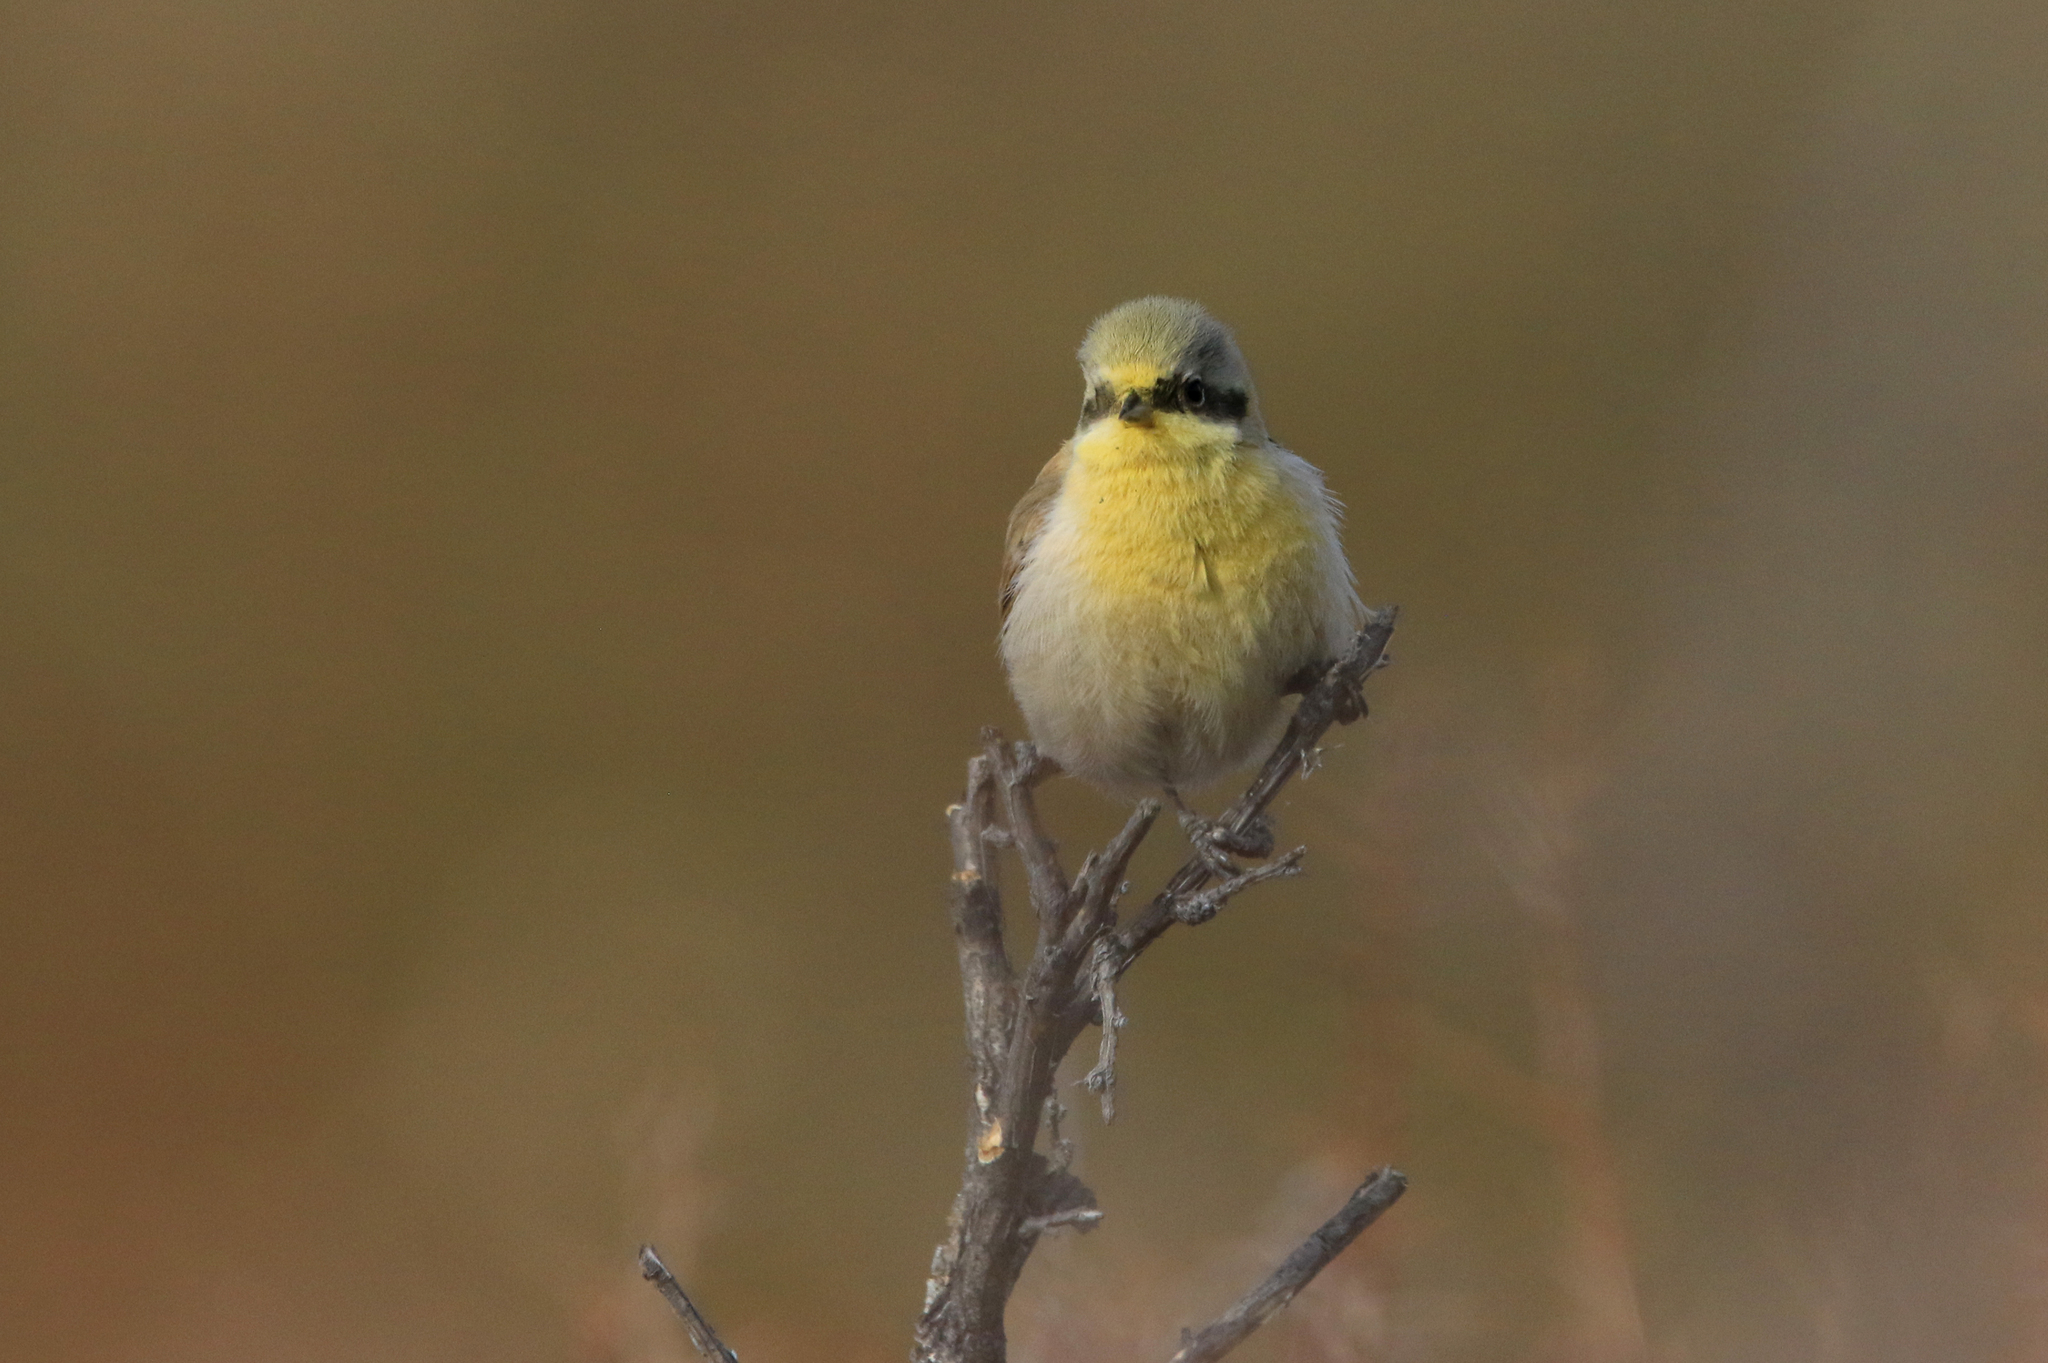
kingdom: Animalia
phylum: Chordata
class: Aves
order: Passeriformes
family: Remizidae
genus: Remiz
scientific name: Remiz coronatus
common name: White-crowned penduline tit
